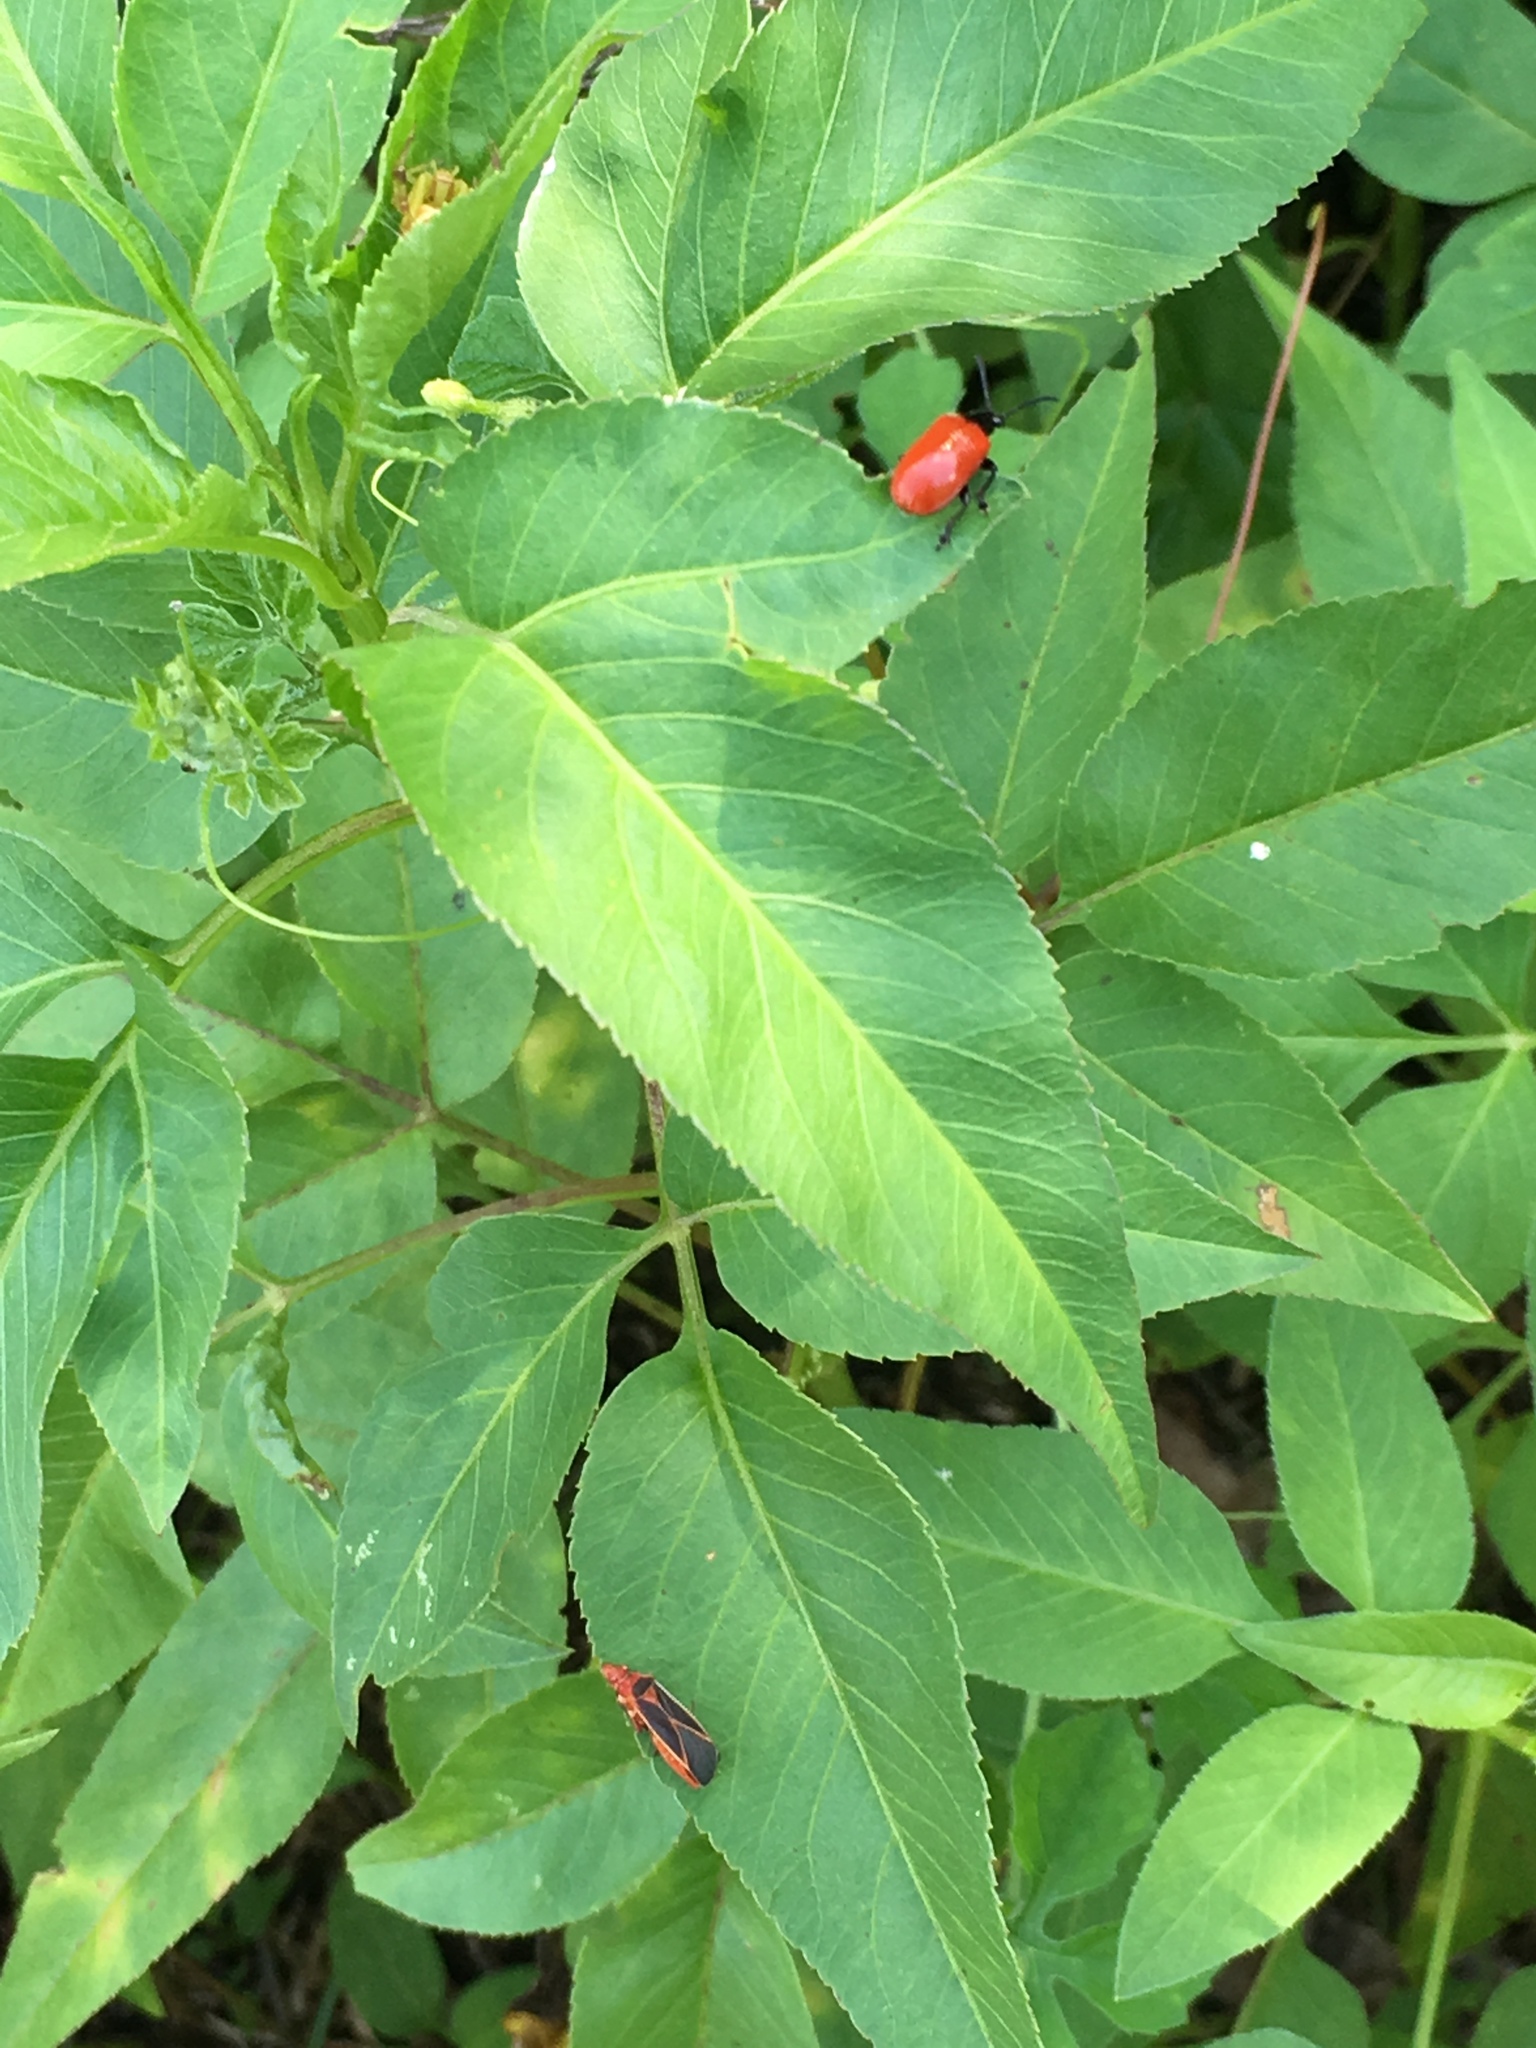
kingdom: Animalia
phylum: Arthropoda
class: Insecta
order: Hemiptera
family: Pyrrhocoridae
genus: Dysdercus
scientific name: Dysdercus suturellus
